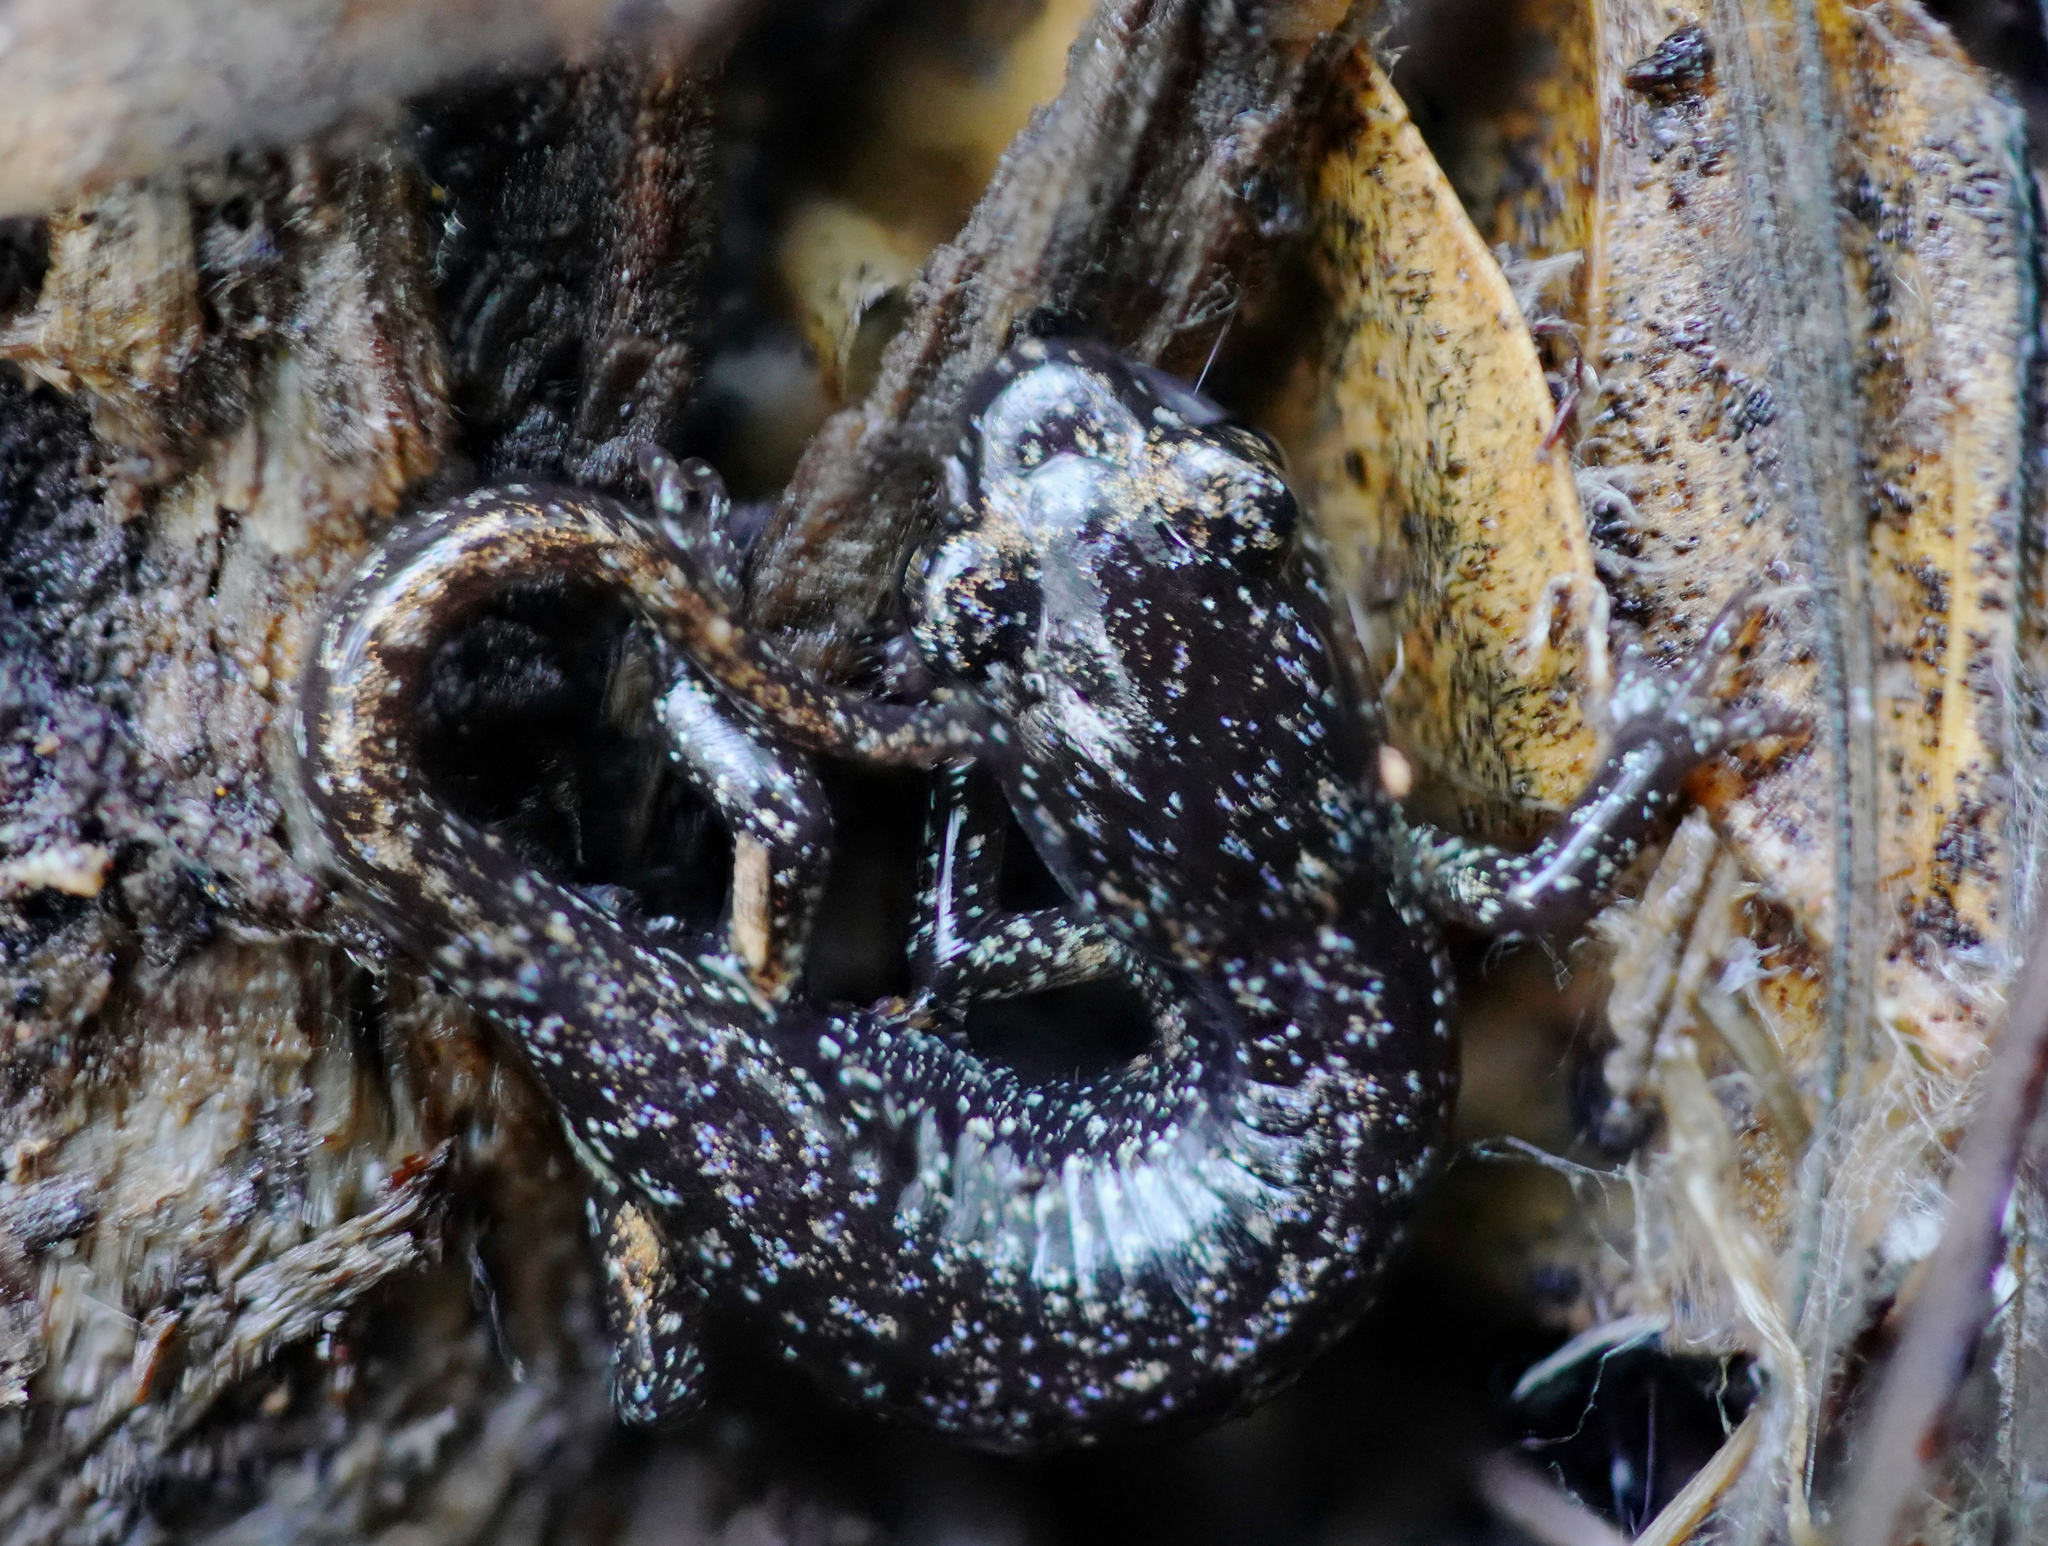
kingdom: Animalia
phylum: Chordata
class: Amphibia
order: Caudata
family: Plethodontidae
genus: Aneides
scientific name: Aneides lugubris
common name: Arboreal salamander
